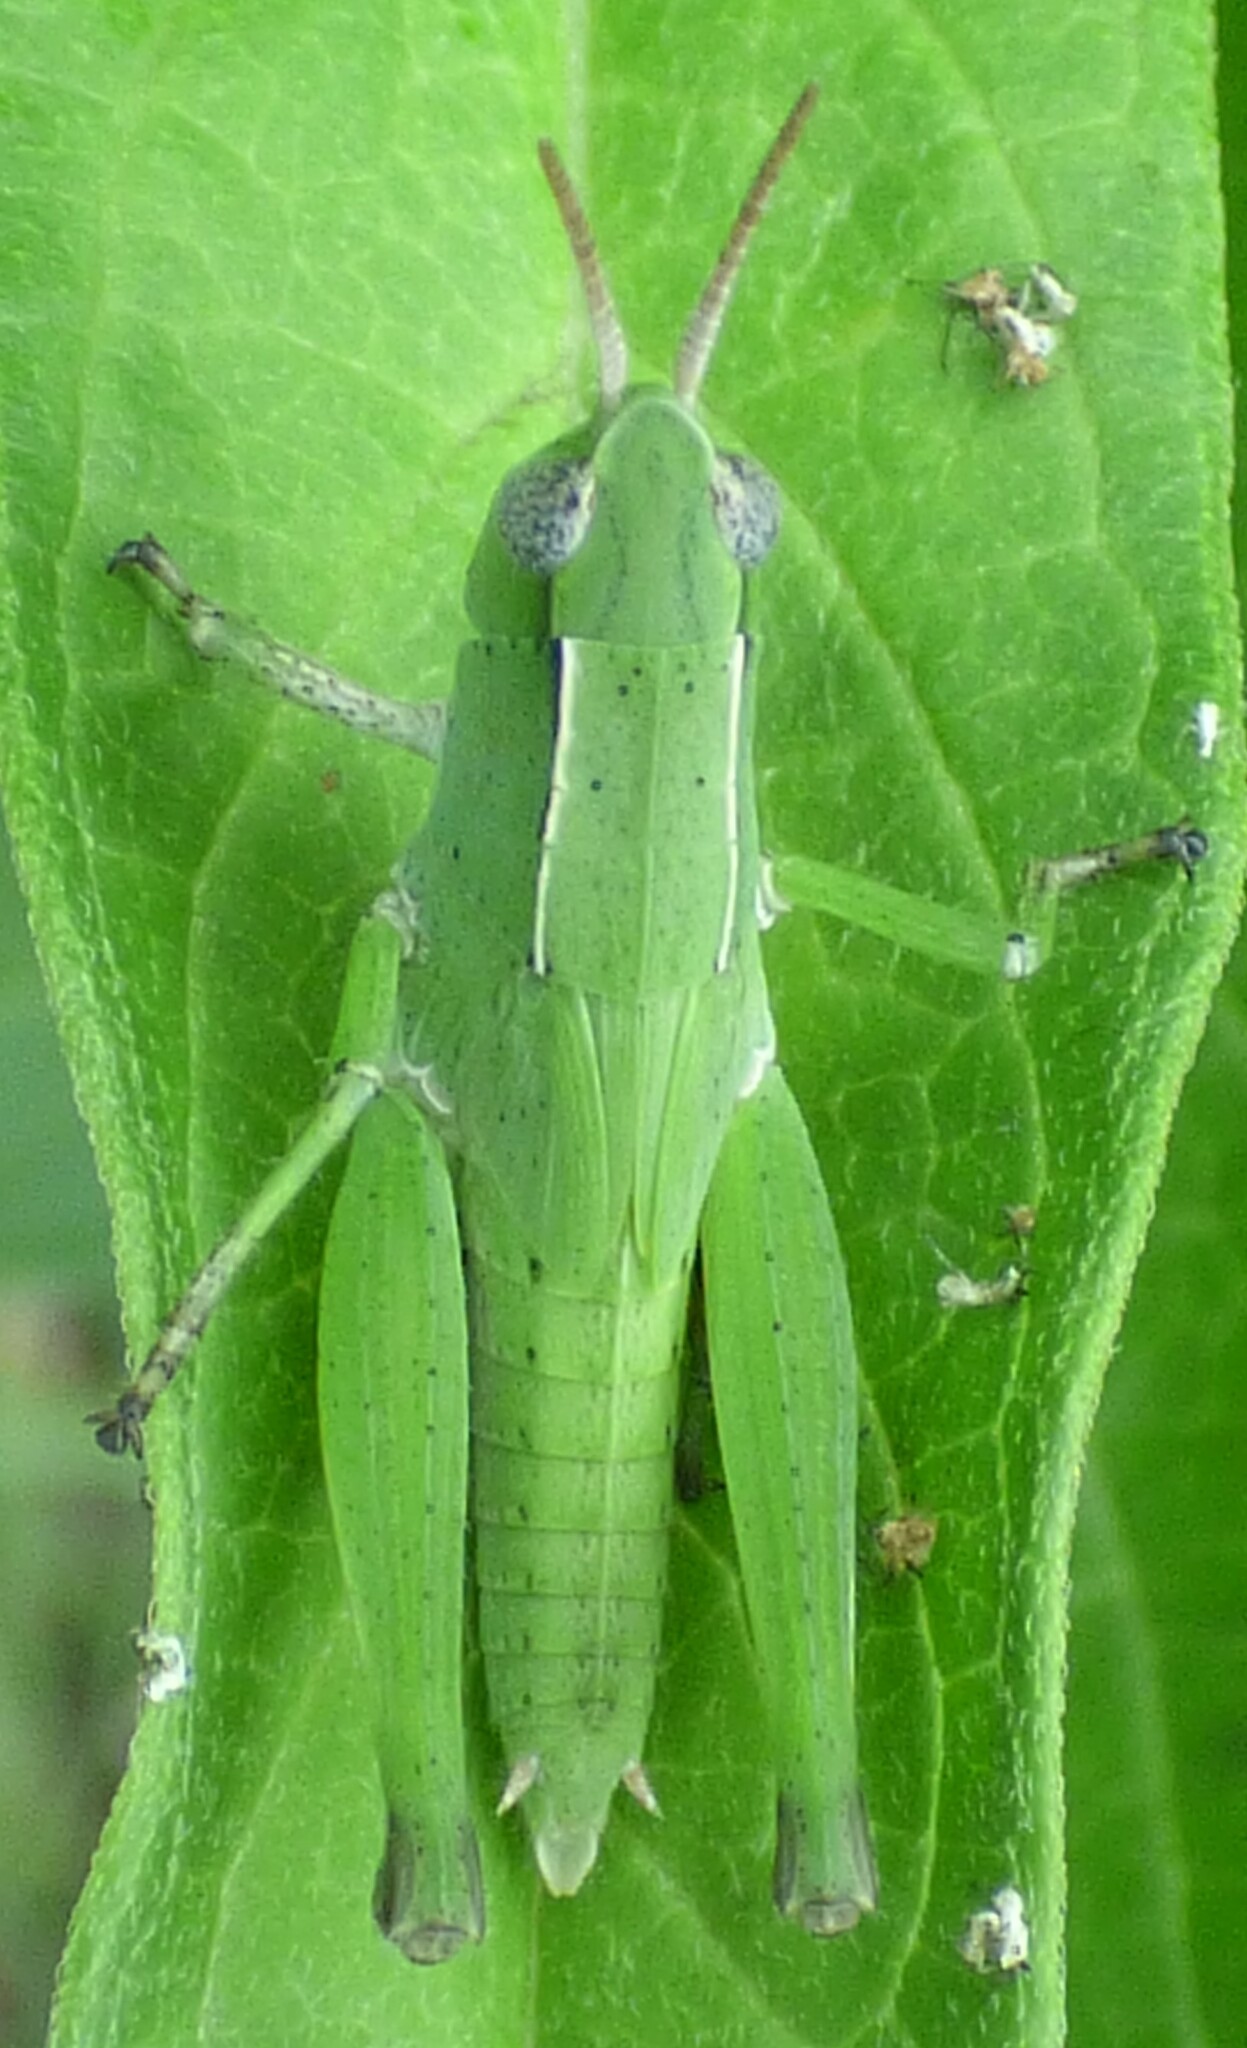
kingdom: Animalia
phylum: Arthropoda
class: Insecta
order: Orthoptera
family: Acrididae
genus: Dichromorpha
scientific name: Dichromorpha viridis
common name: Short-winged green grasshopper
